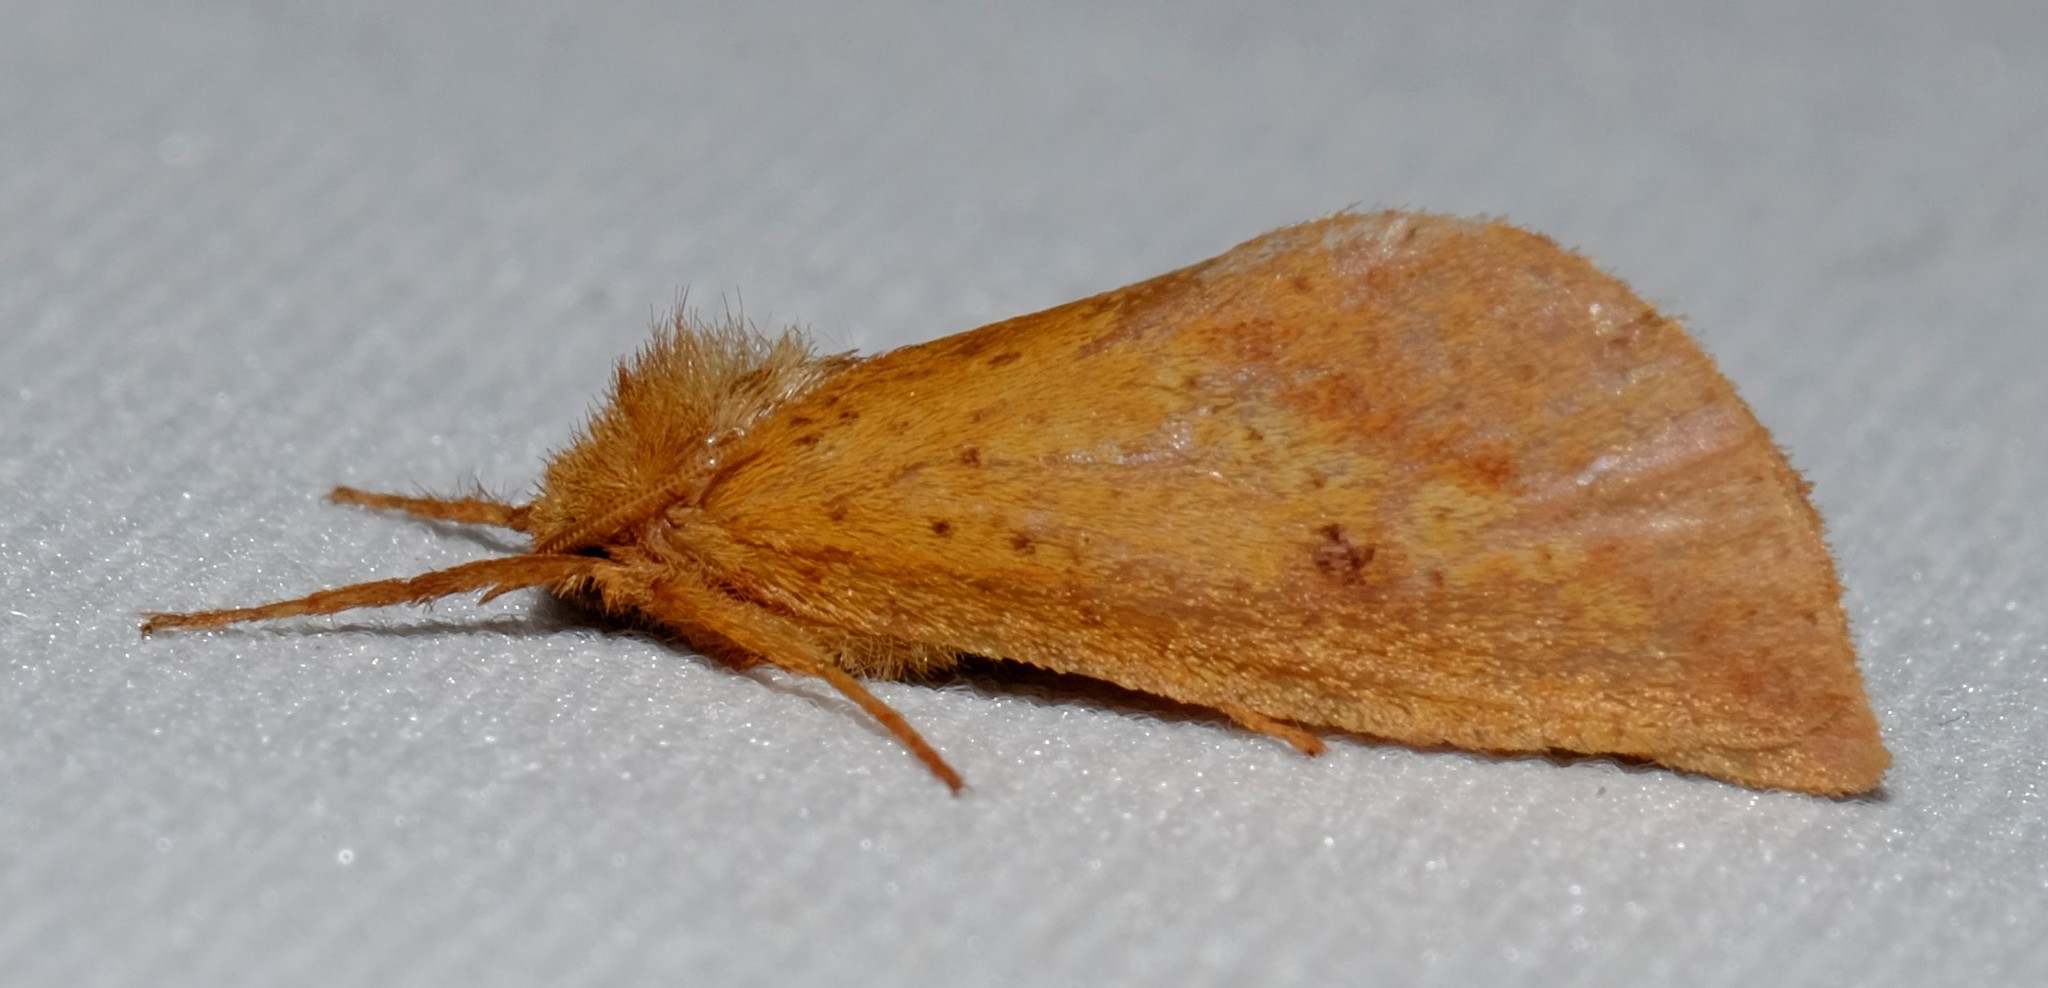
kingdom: Animalia
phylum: Arthropoda
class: Insecta
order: Lepidoptera
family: Hepialidae
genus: Fraus
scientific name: Fraus crocea
